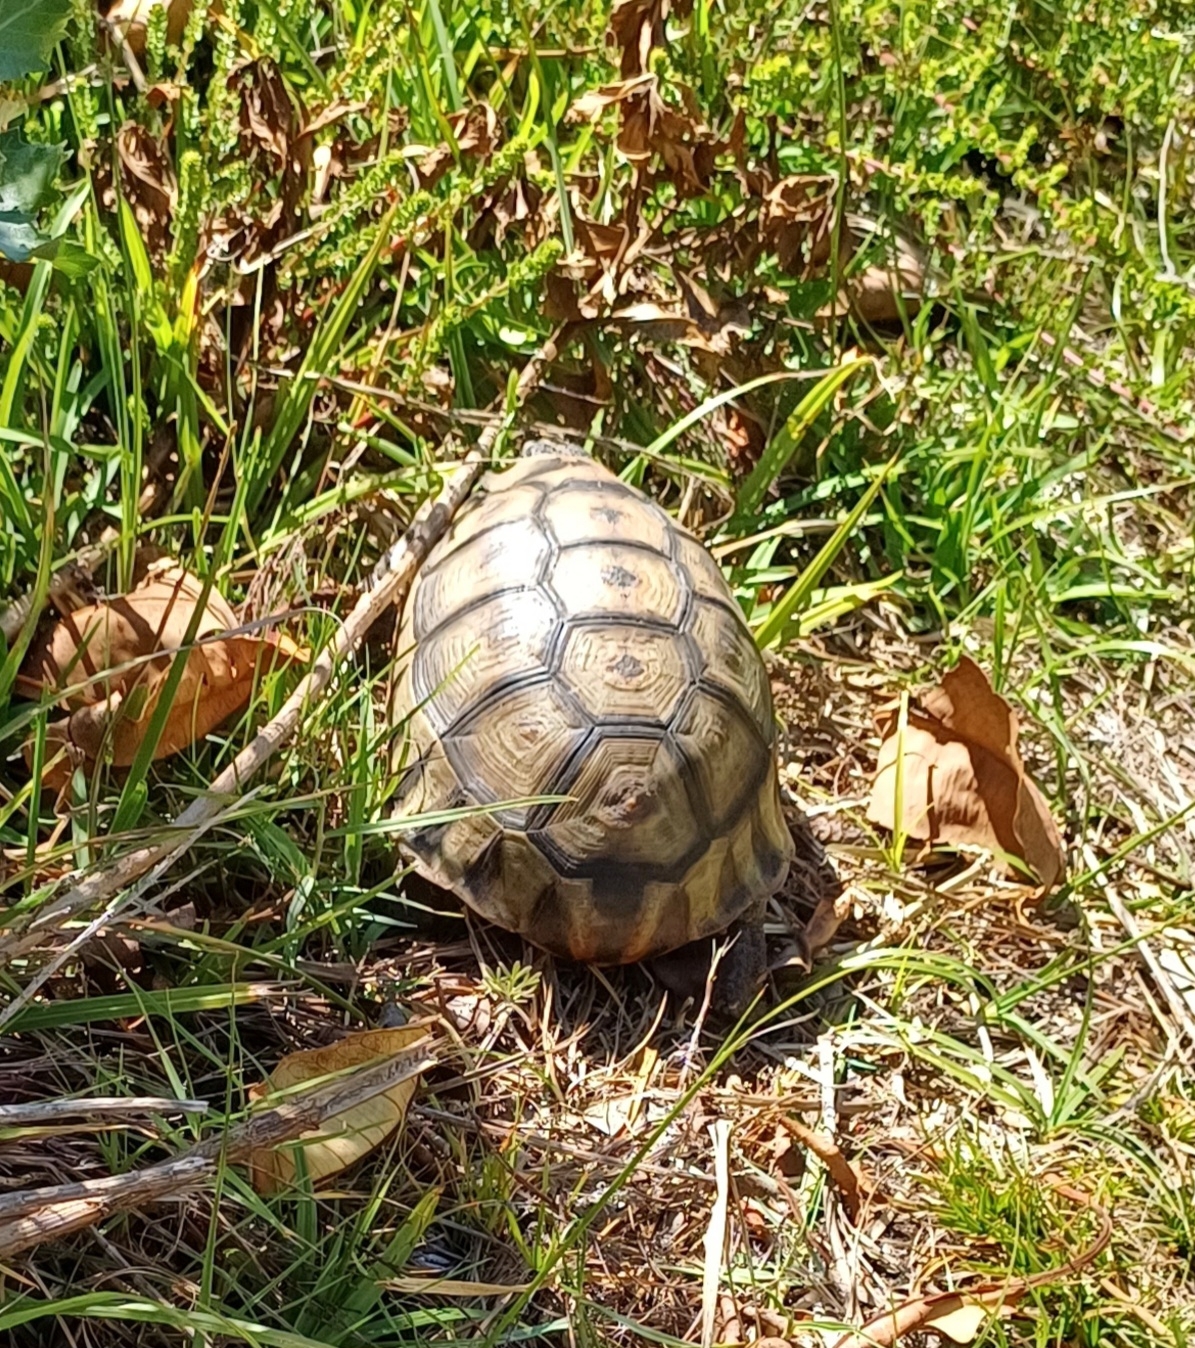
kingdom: Animalia
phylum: Chordata
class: Testudines
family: Testudinidae
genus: Chersina
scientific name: Chersina angulata
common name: South african bowsprit tortoise
